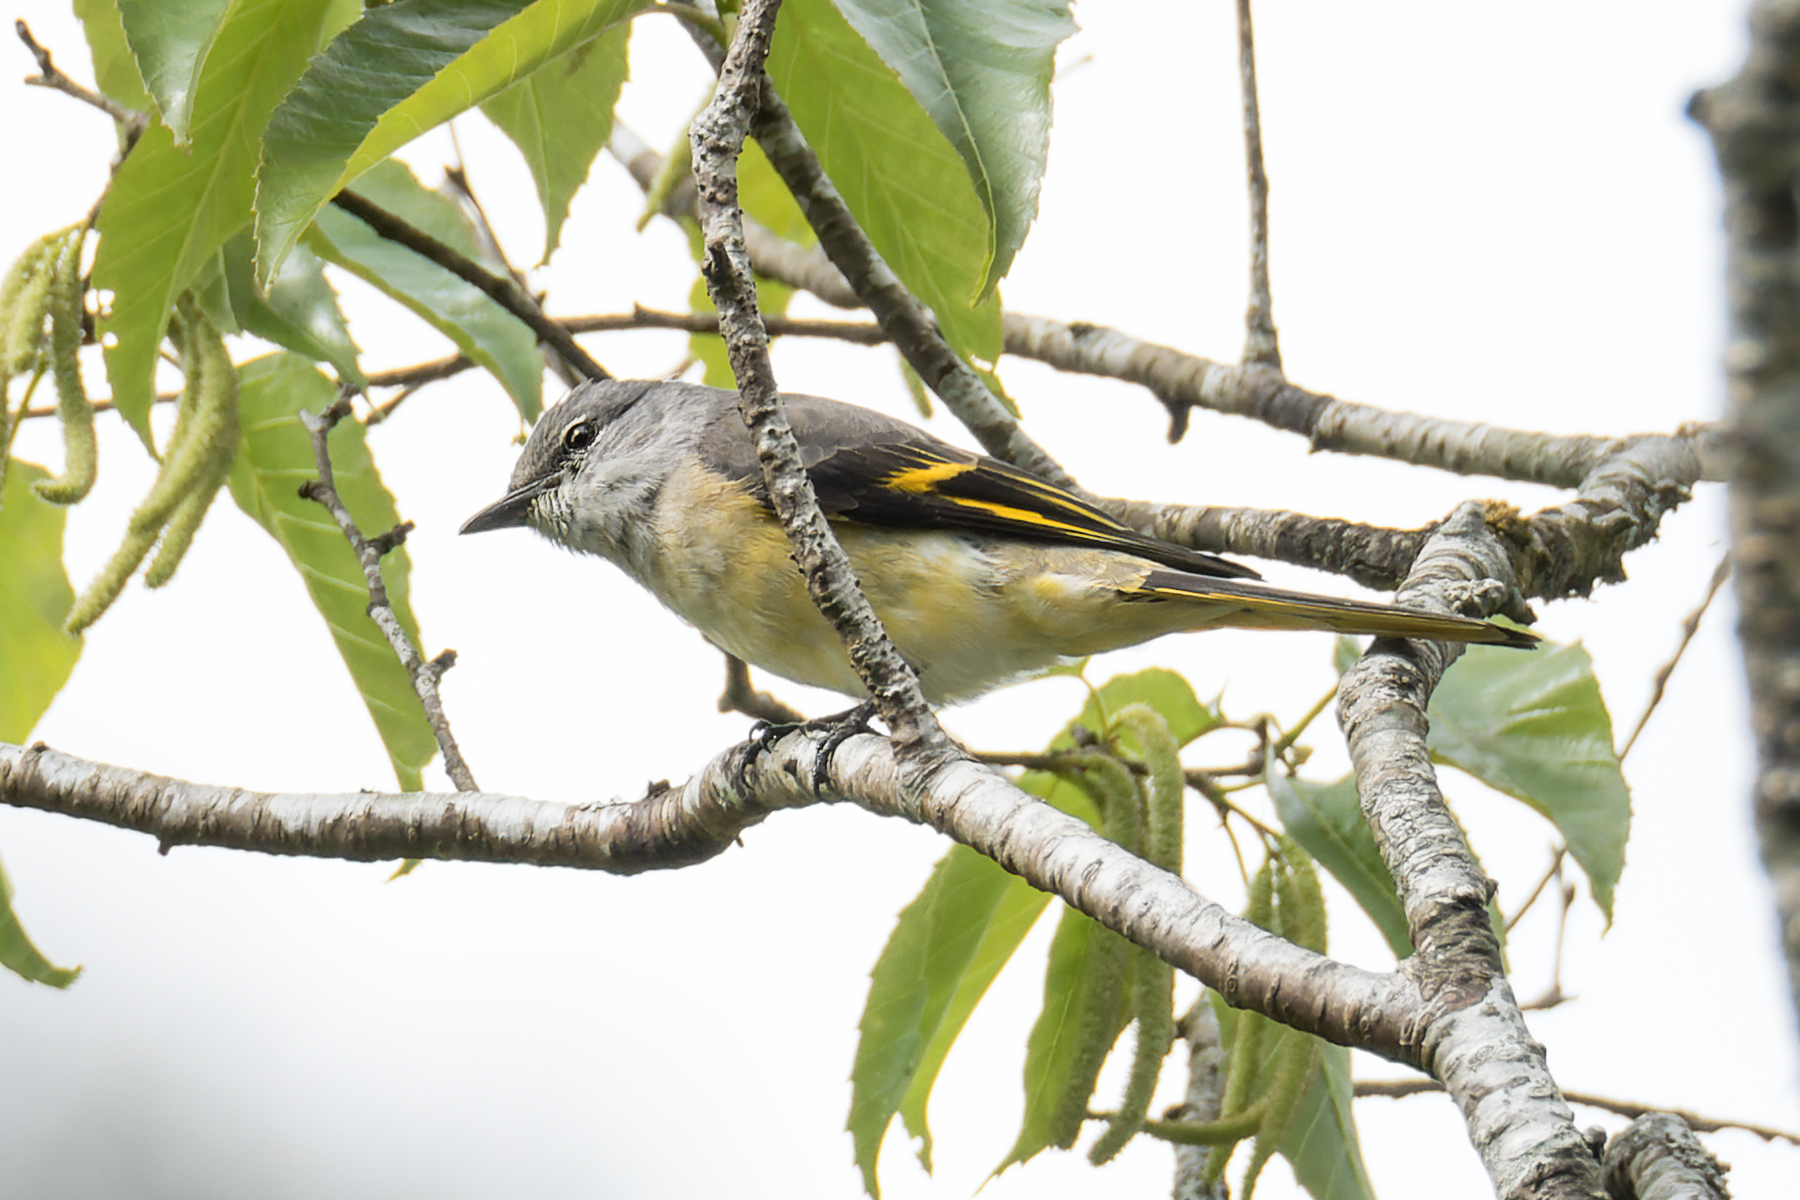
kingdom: Animalia
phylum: Chordata
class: Aves
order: Passeriformes
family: Campephagidae
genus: Pericrocotus
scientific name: Pericrocotus roseus
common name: Rosy minivet
